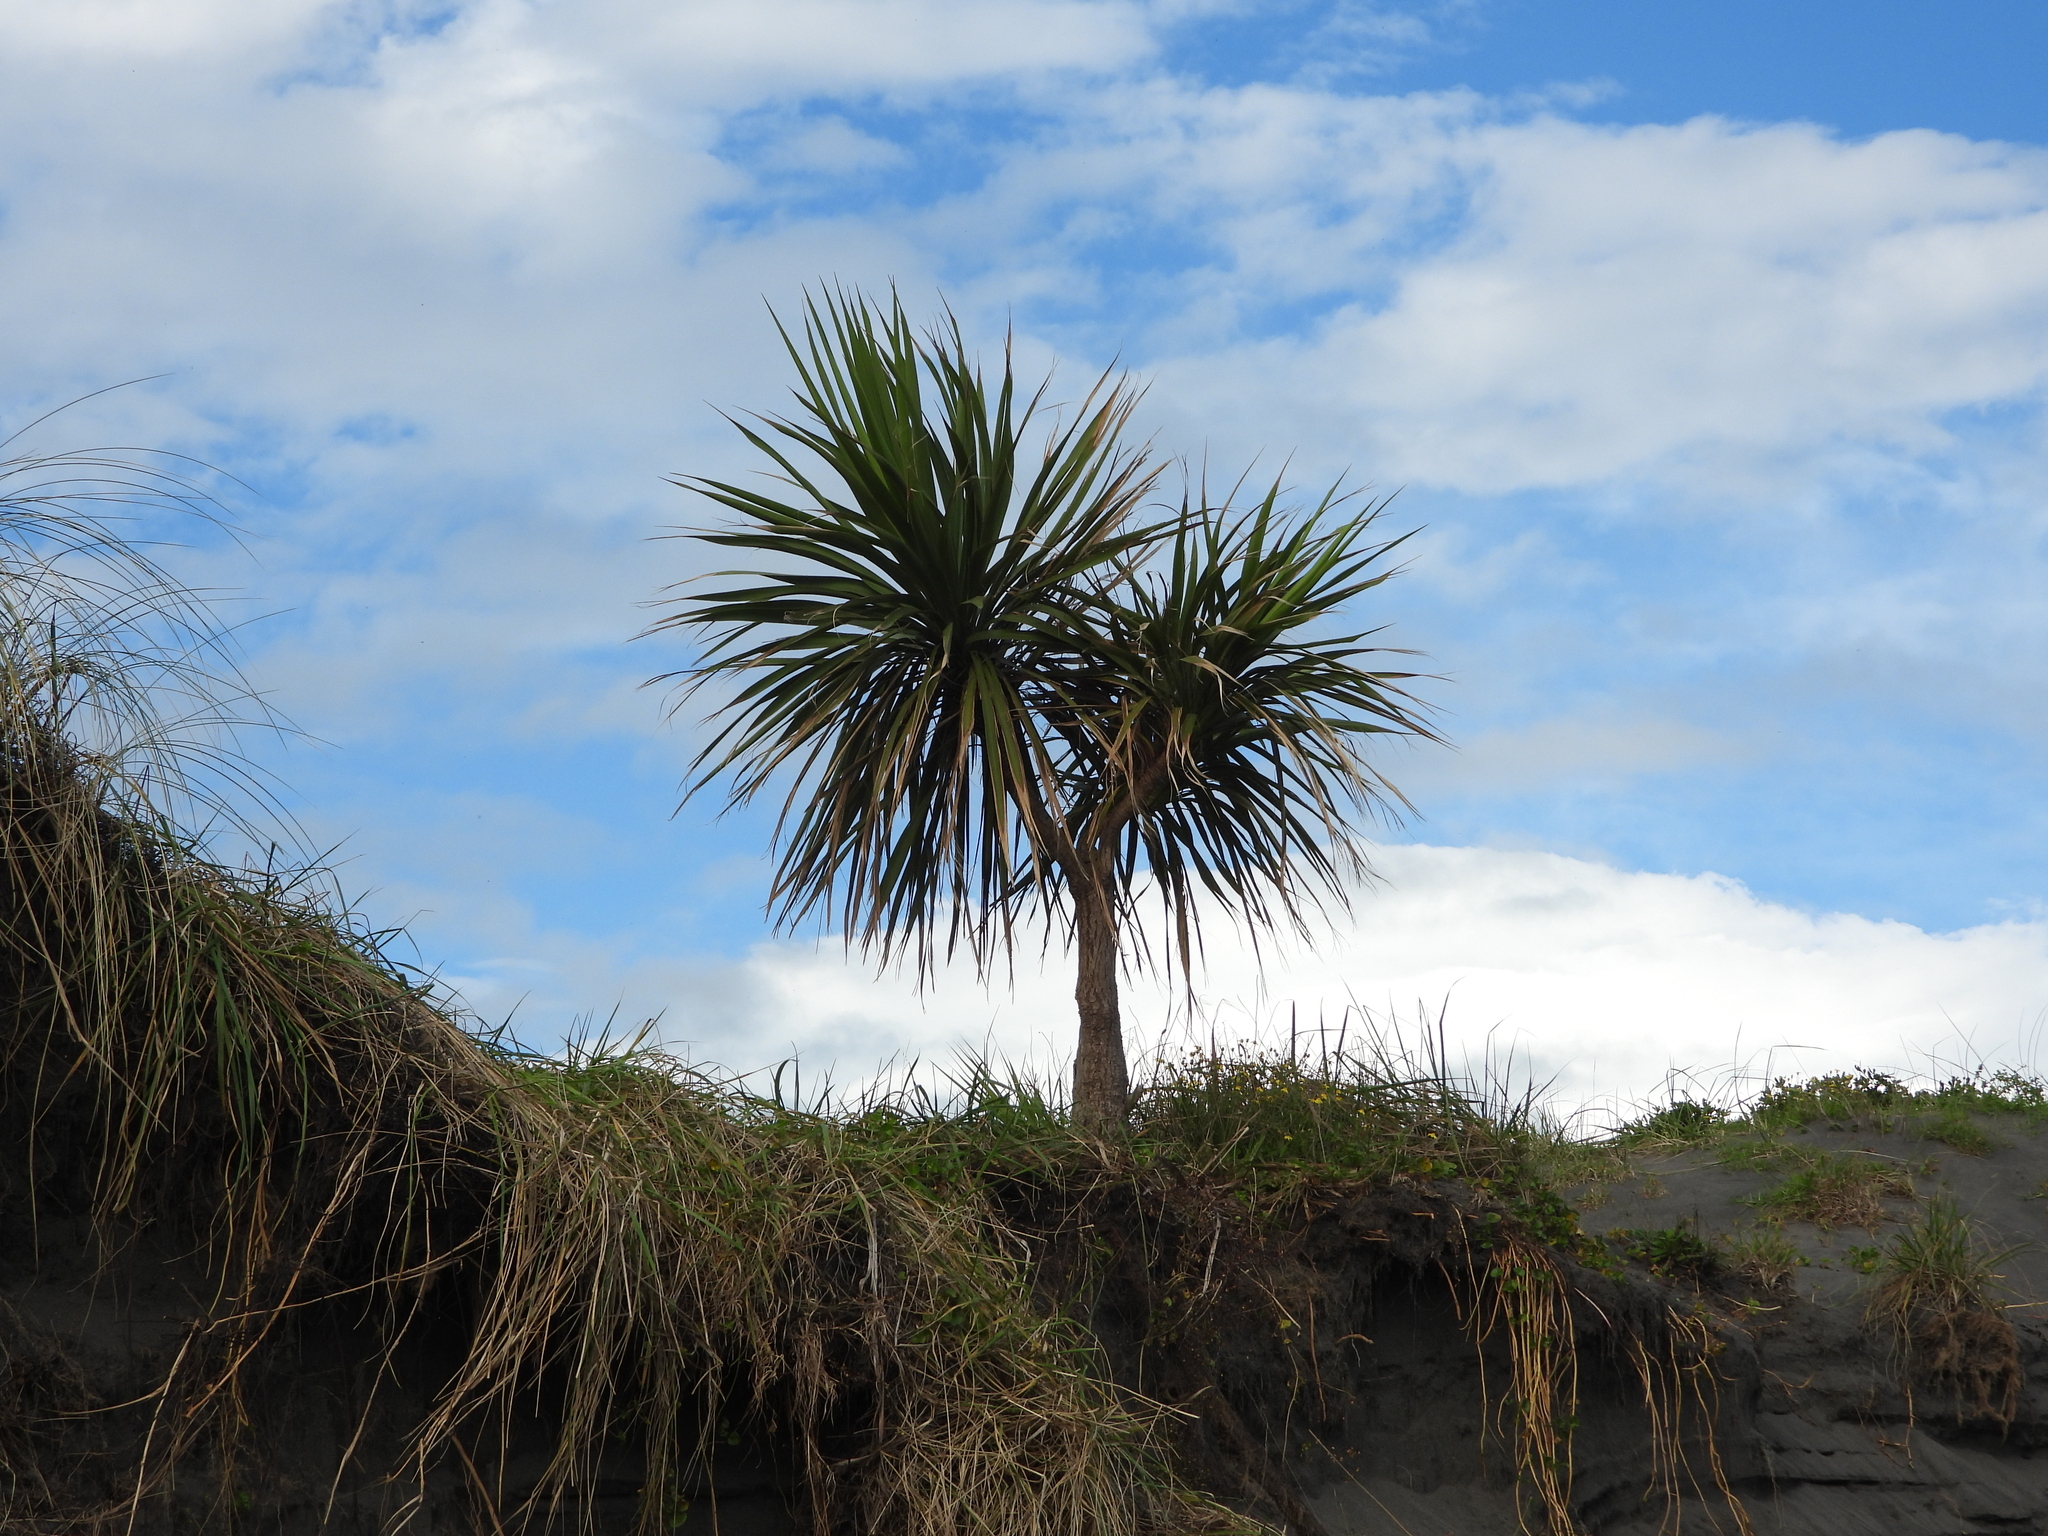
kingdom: Plantae
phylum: Tracheophyta
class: Liliopsida
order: Asparagales
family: Asparagaceae
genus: Cordyline
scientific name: Cordyline australis
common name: Cabbage-palm
